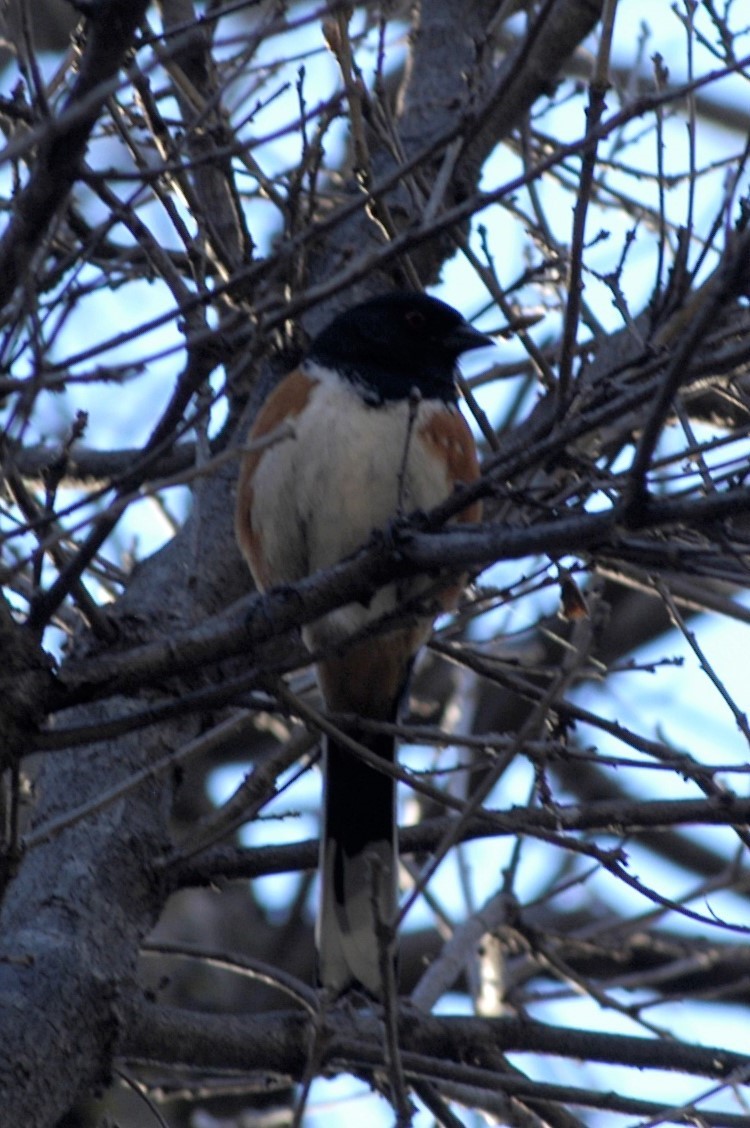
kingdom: Animalia
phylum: Chordata
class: Aves
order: Passeriformes
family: Passerellidae
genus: Pipilo
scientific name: Pipilo maculatus
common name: Spotted towhee
